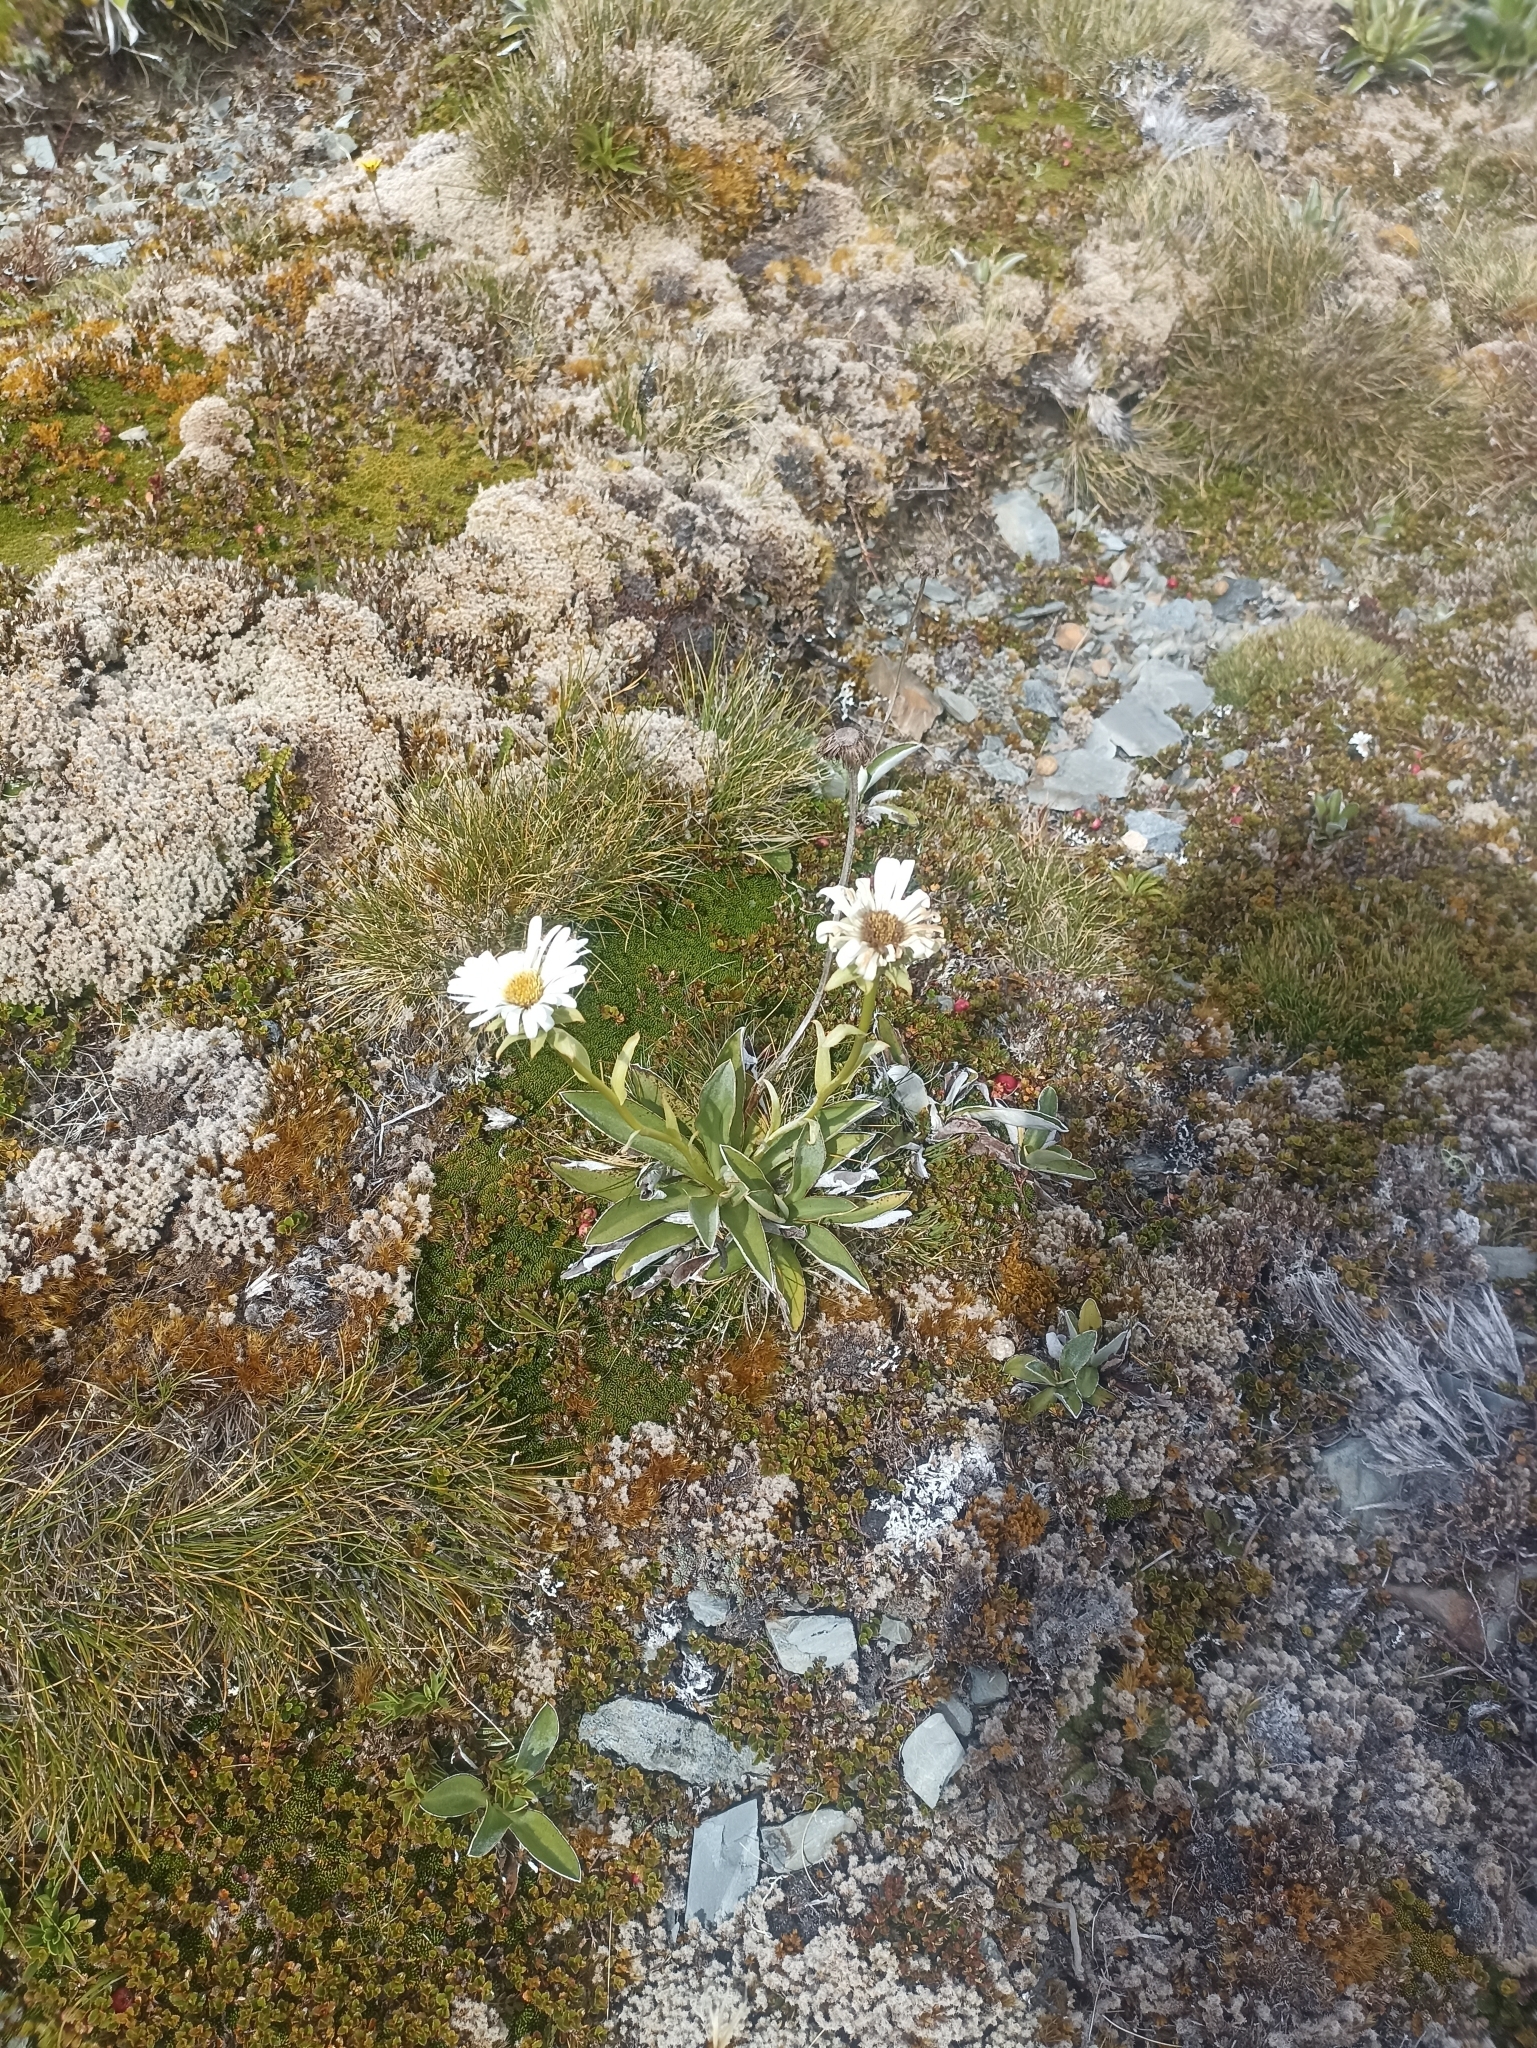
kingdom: Plantae
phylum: Tracheophyta
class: Magnoliopsida
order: Asterales
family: Asteraceae
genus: Celmisia
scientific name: Celmisia dallii
